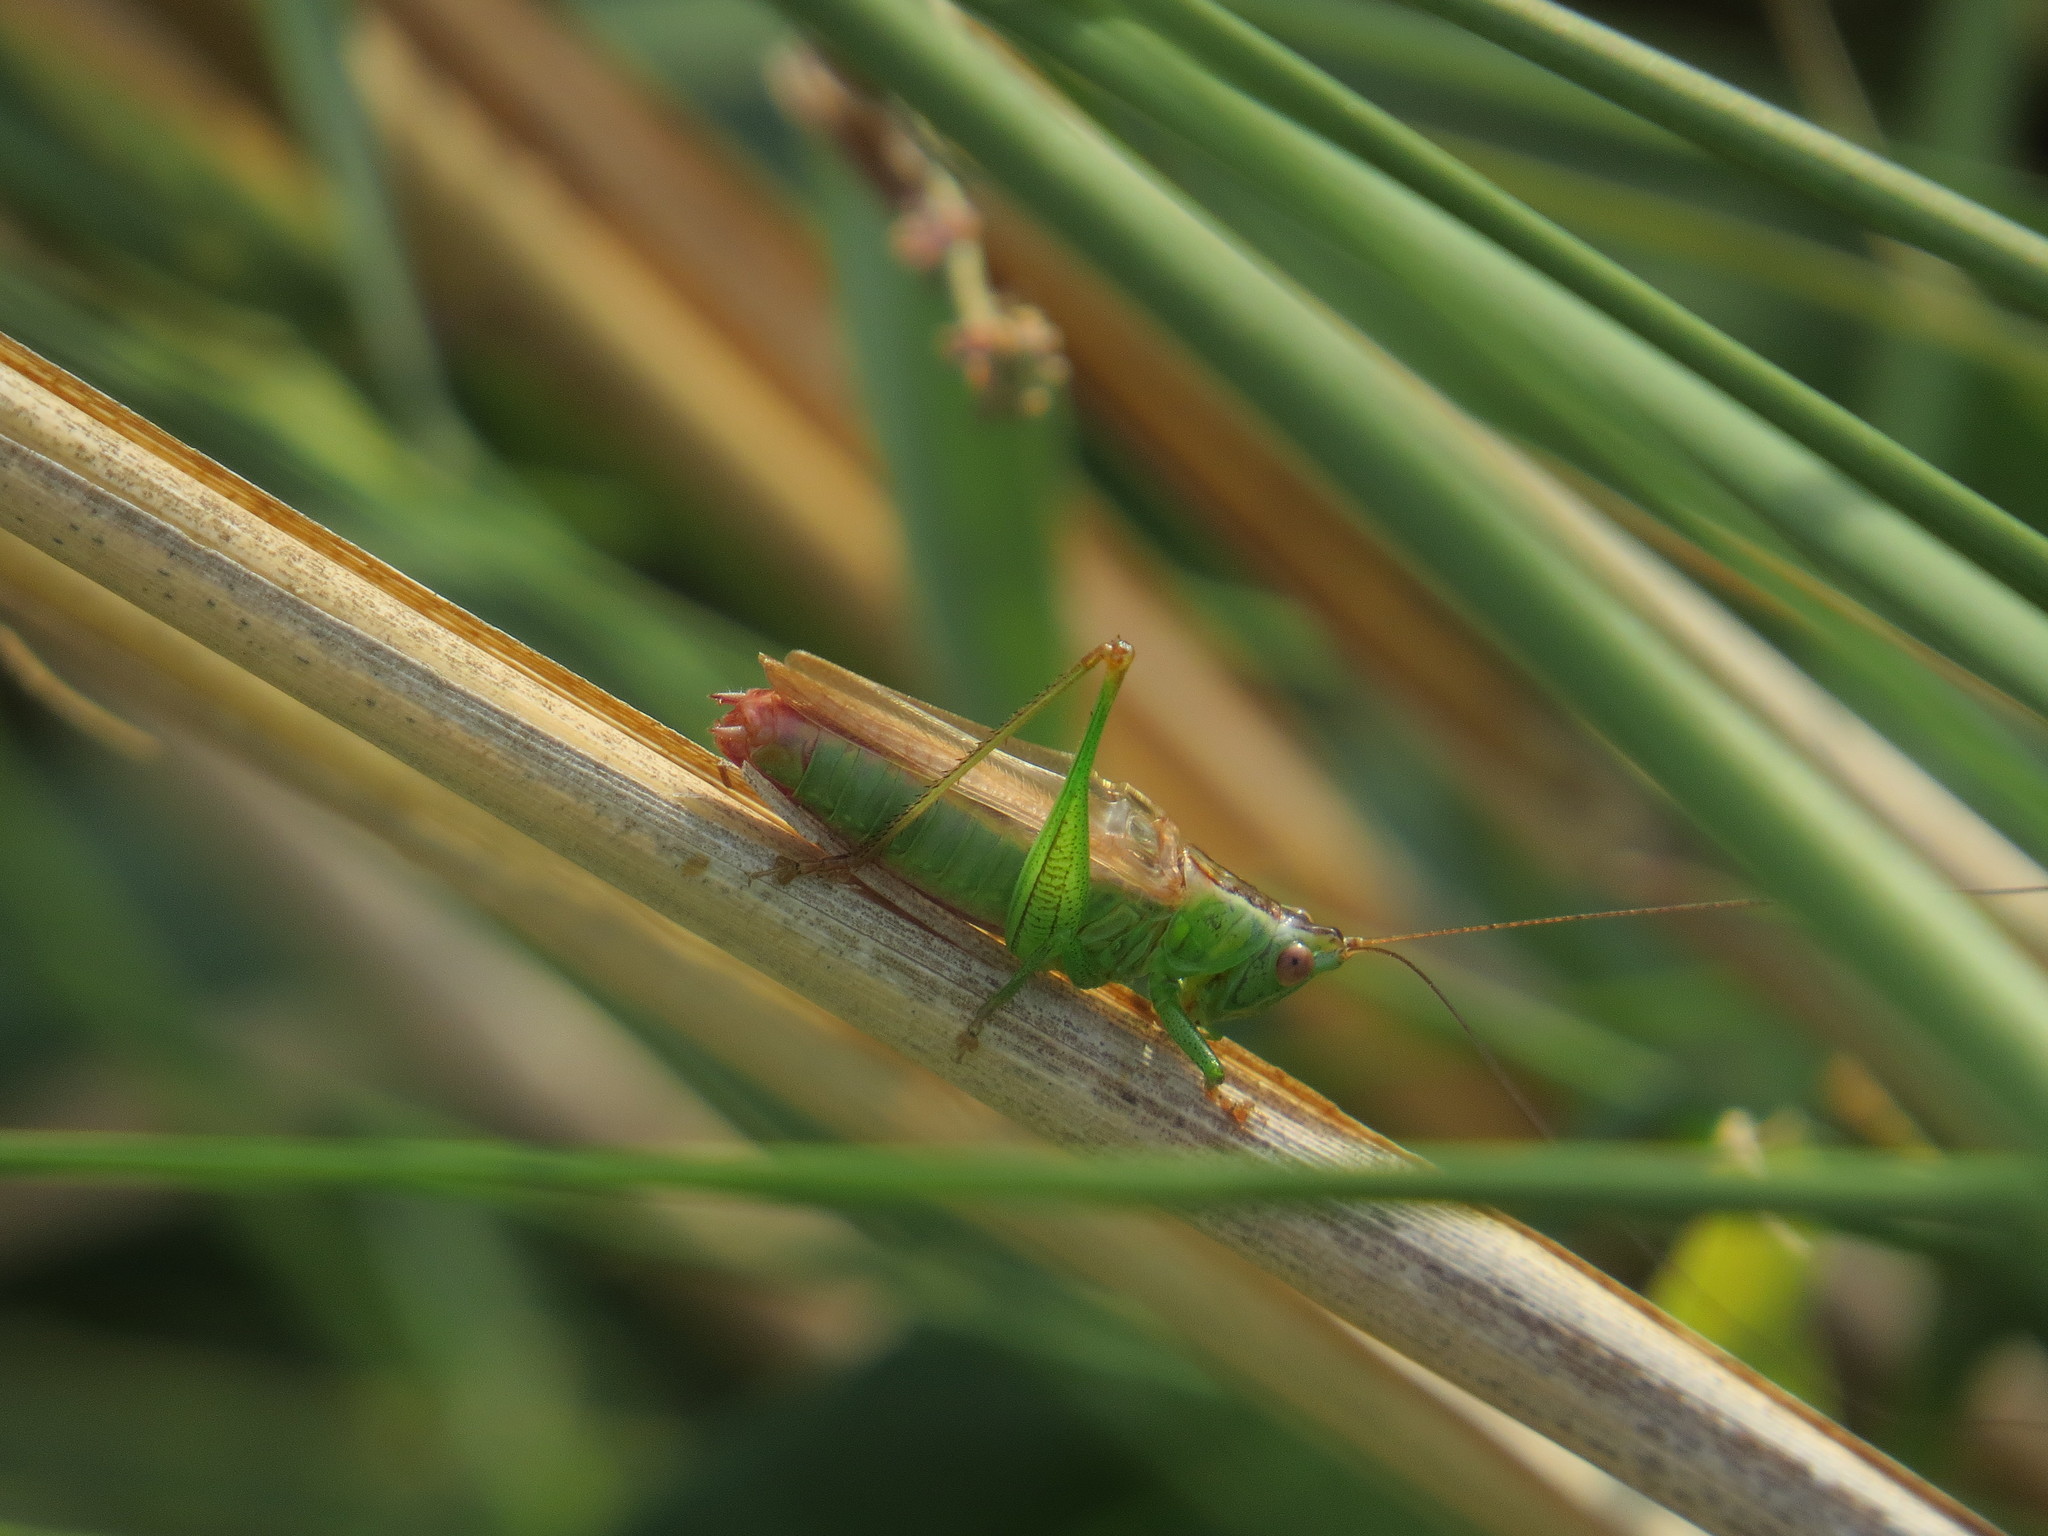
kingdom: Animalia
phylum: Arthropoda
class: Insecta
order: Orthoptera
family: Tettigoniidae
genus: Conocephalus
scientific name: Conocephalus fuscus
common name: Long-winged conehead
